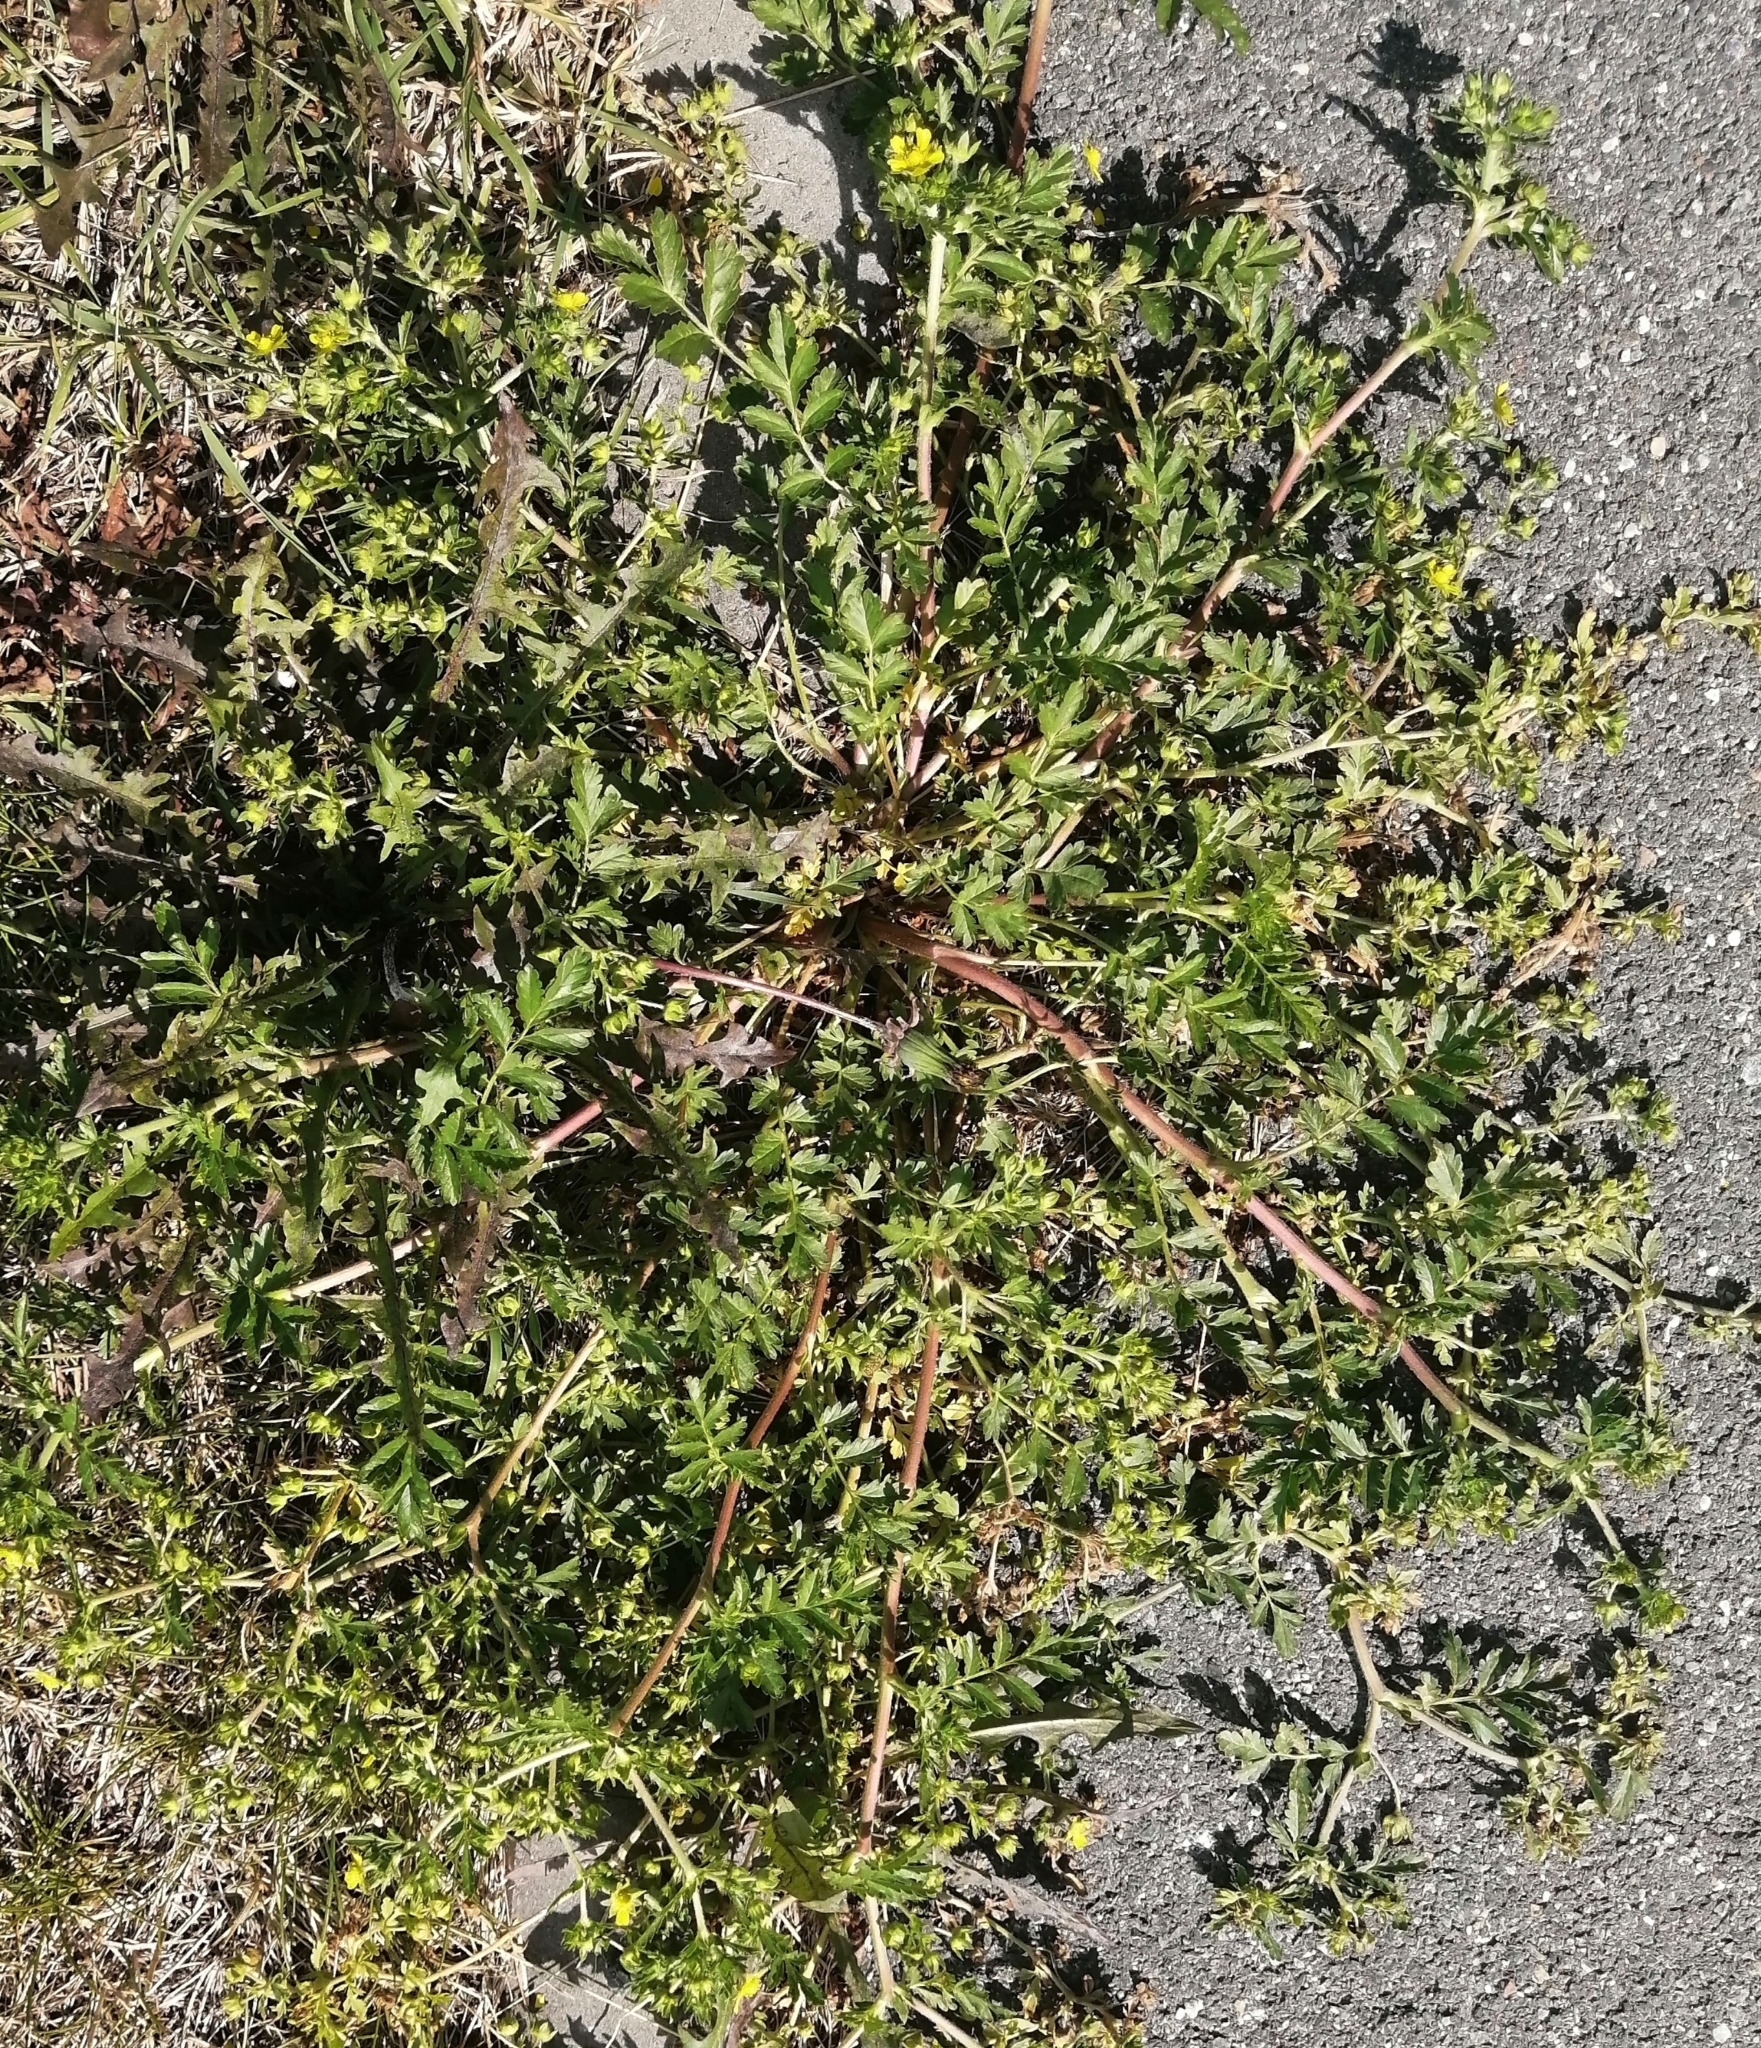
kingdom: Plantae
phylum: Tracheophyta
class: Magnoliopsida
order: Rosales
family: Rosaceae
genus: Potentilla
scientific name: Potentilla supina
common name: Prostrate cinquefoil
